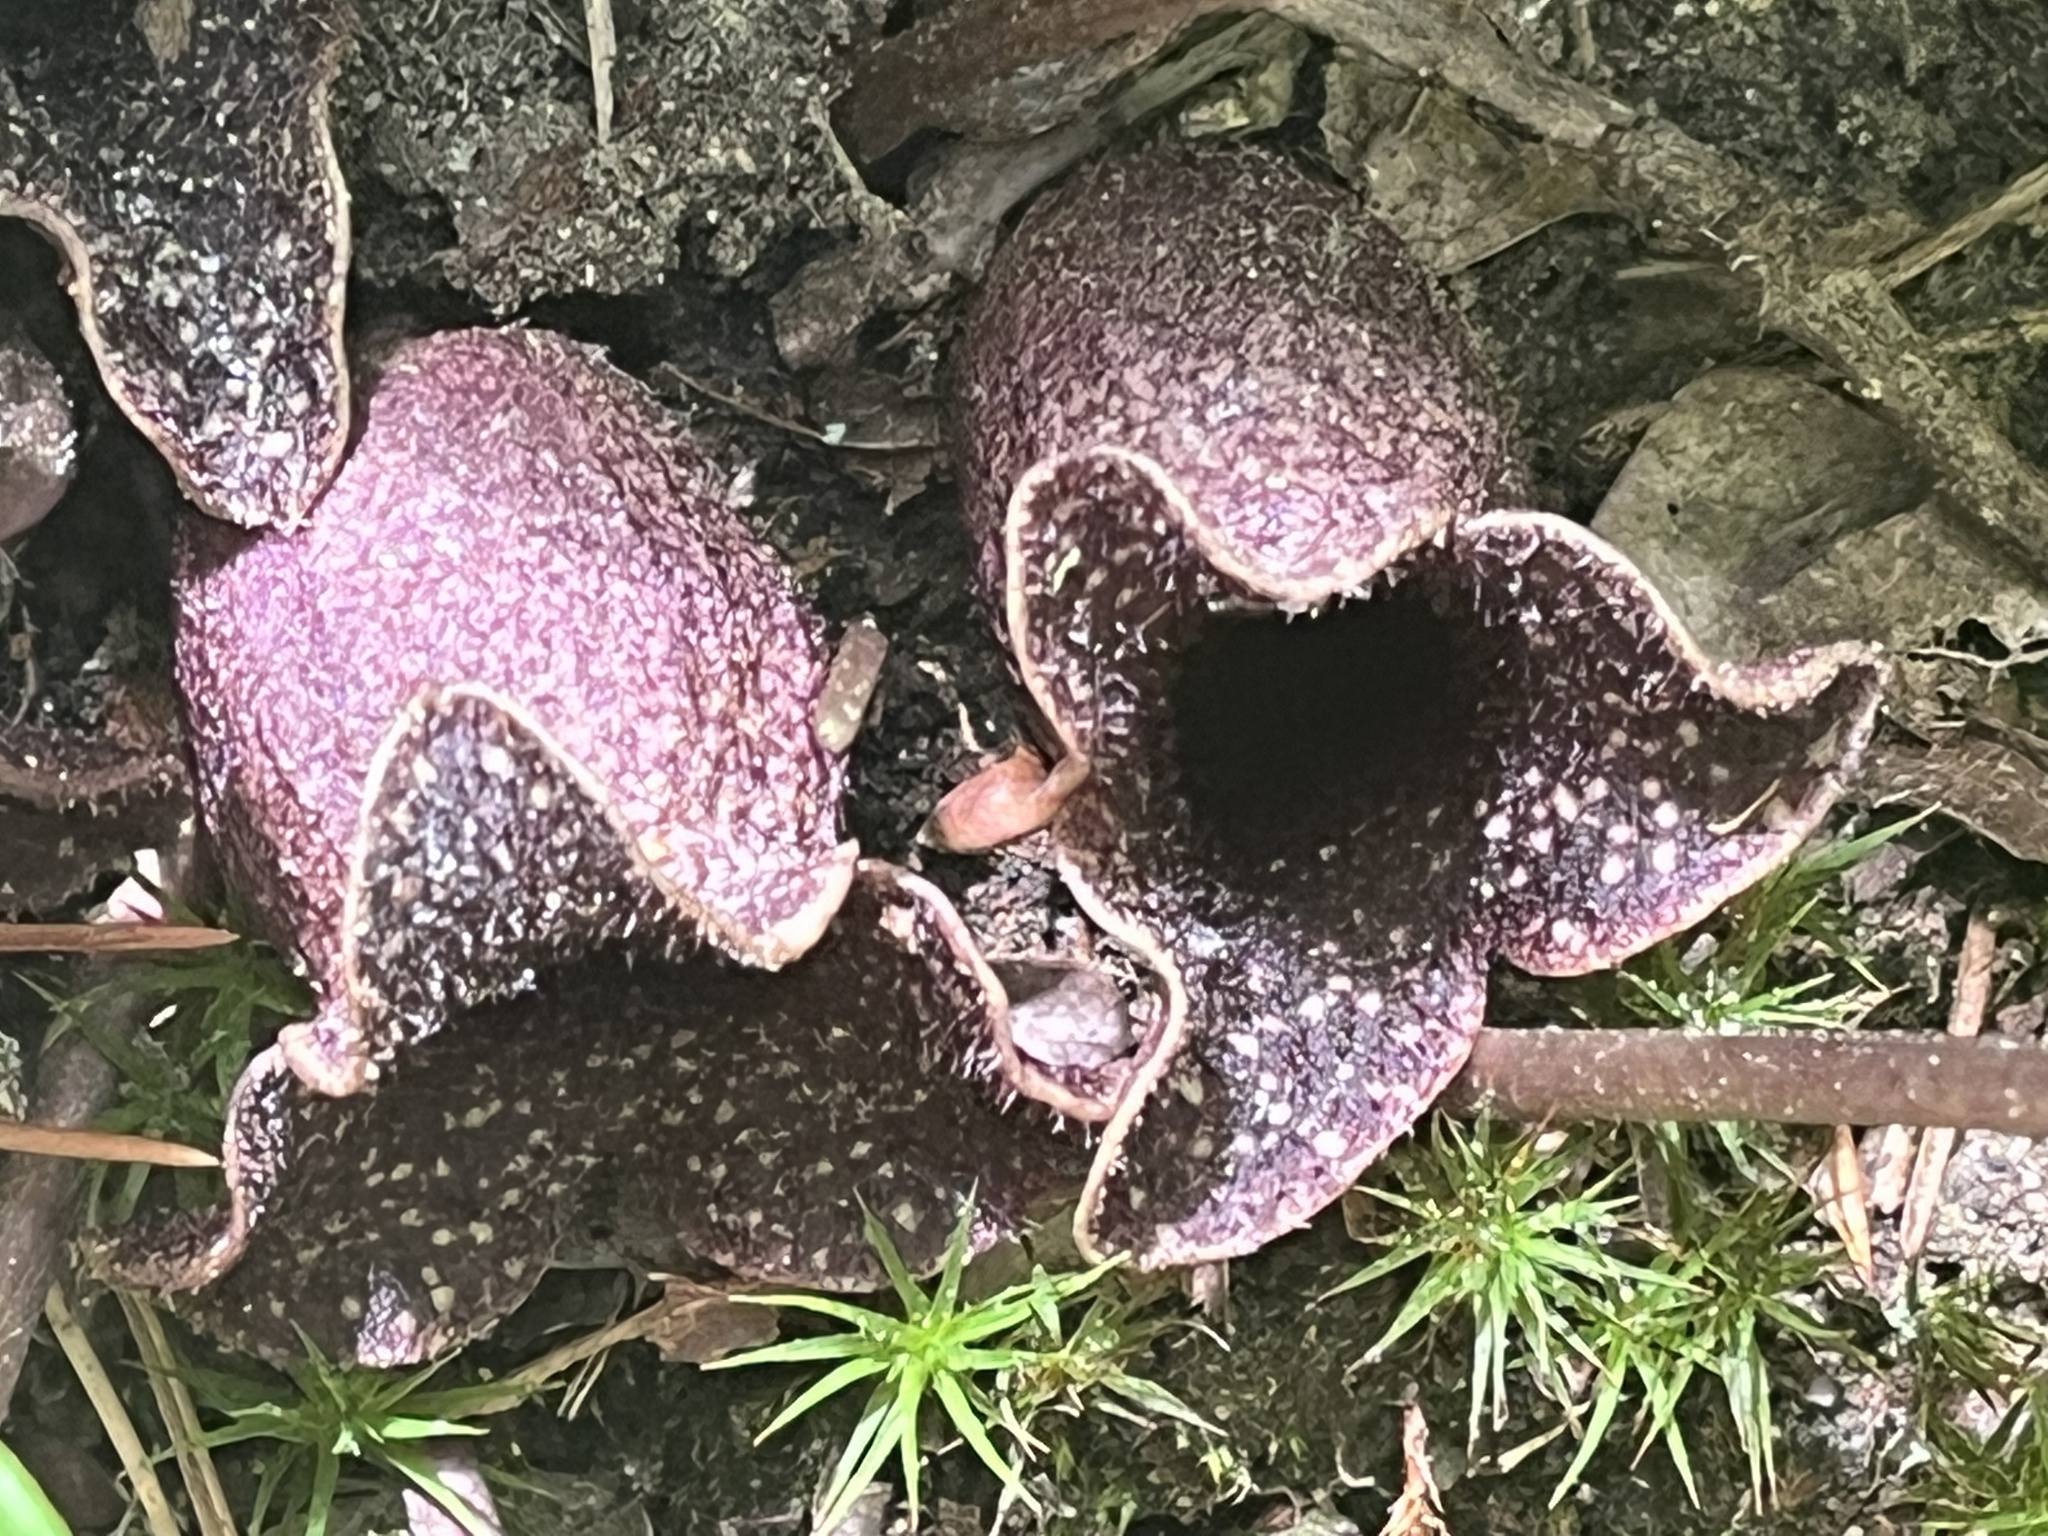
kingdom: Plantae
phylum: Tracheophyta
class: Magnoliopsida
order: Piperales
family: Aristolochiaceae
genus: Hexastylis
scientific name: Hexastylis shuttleworthii
